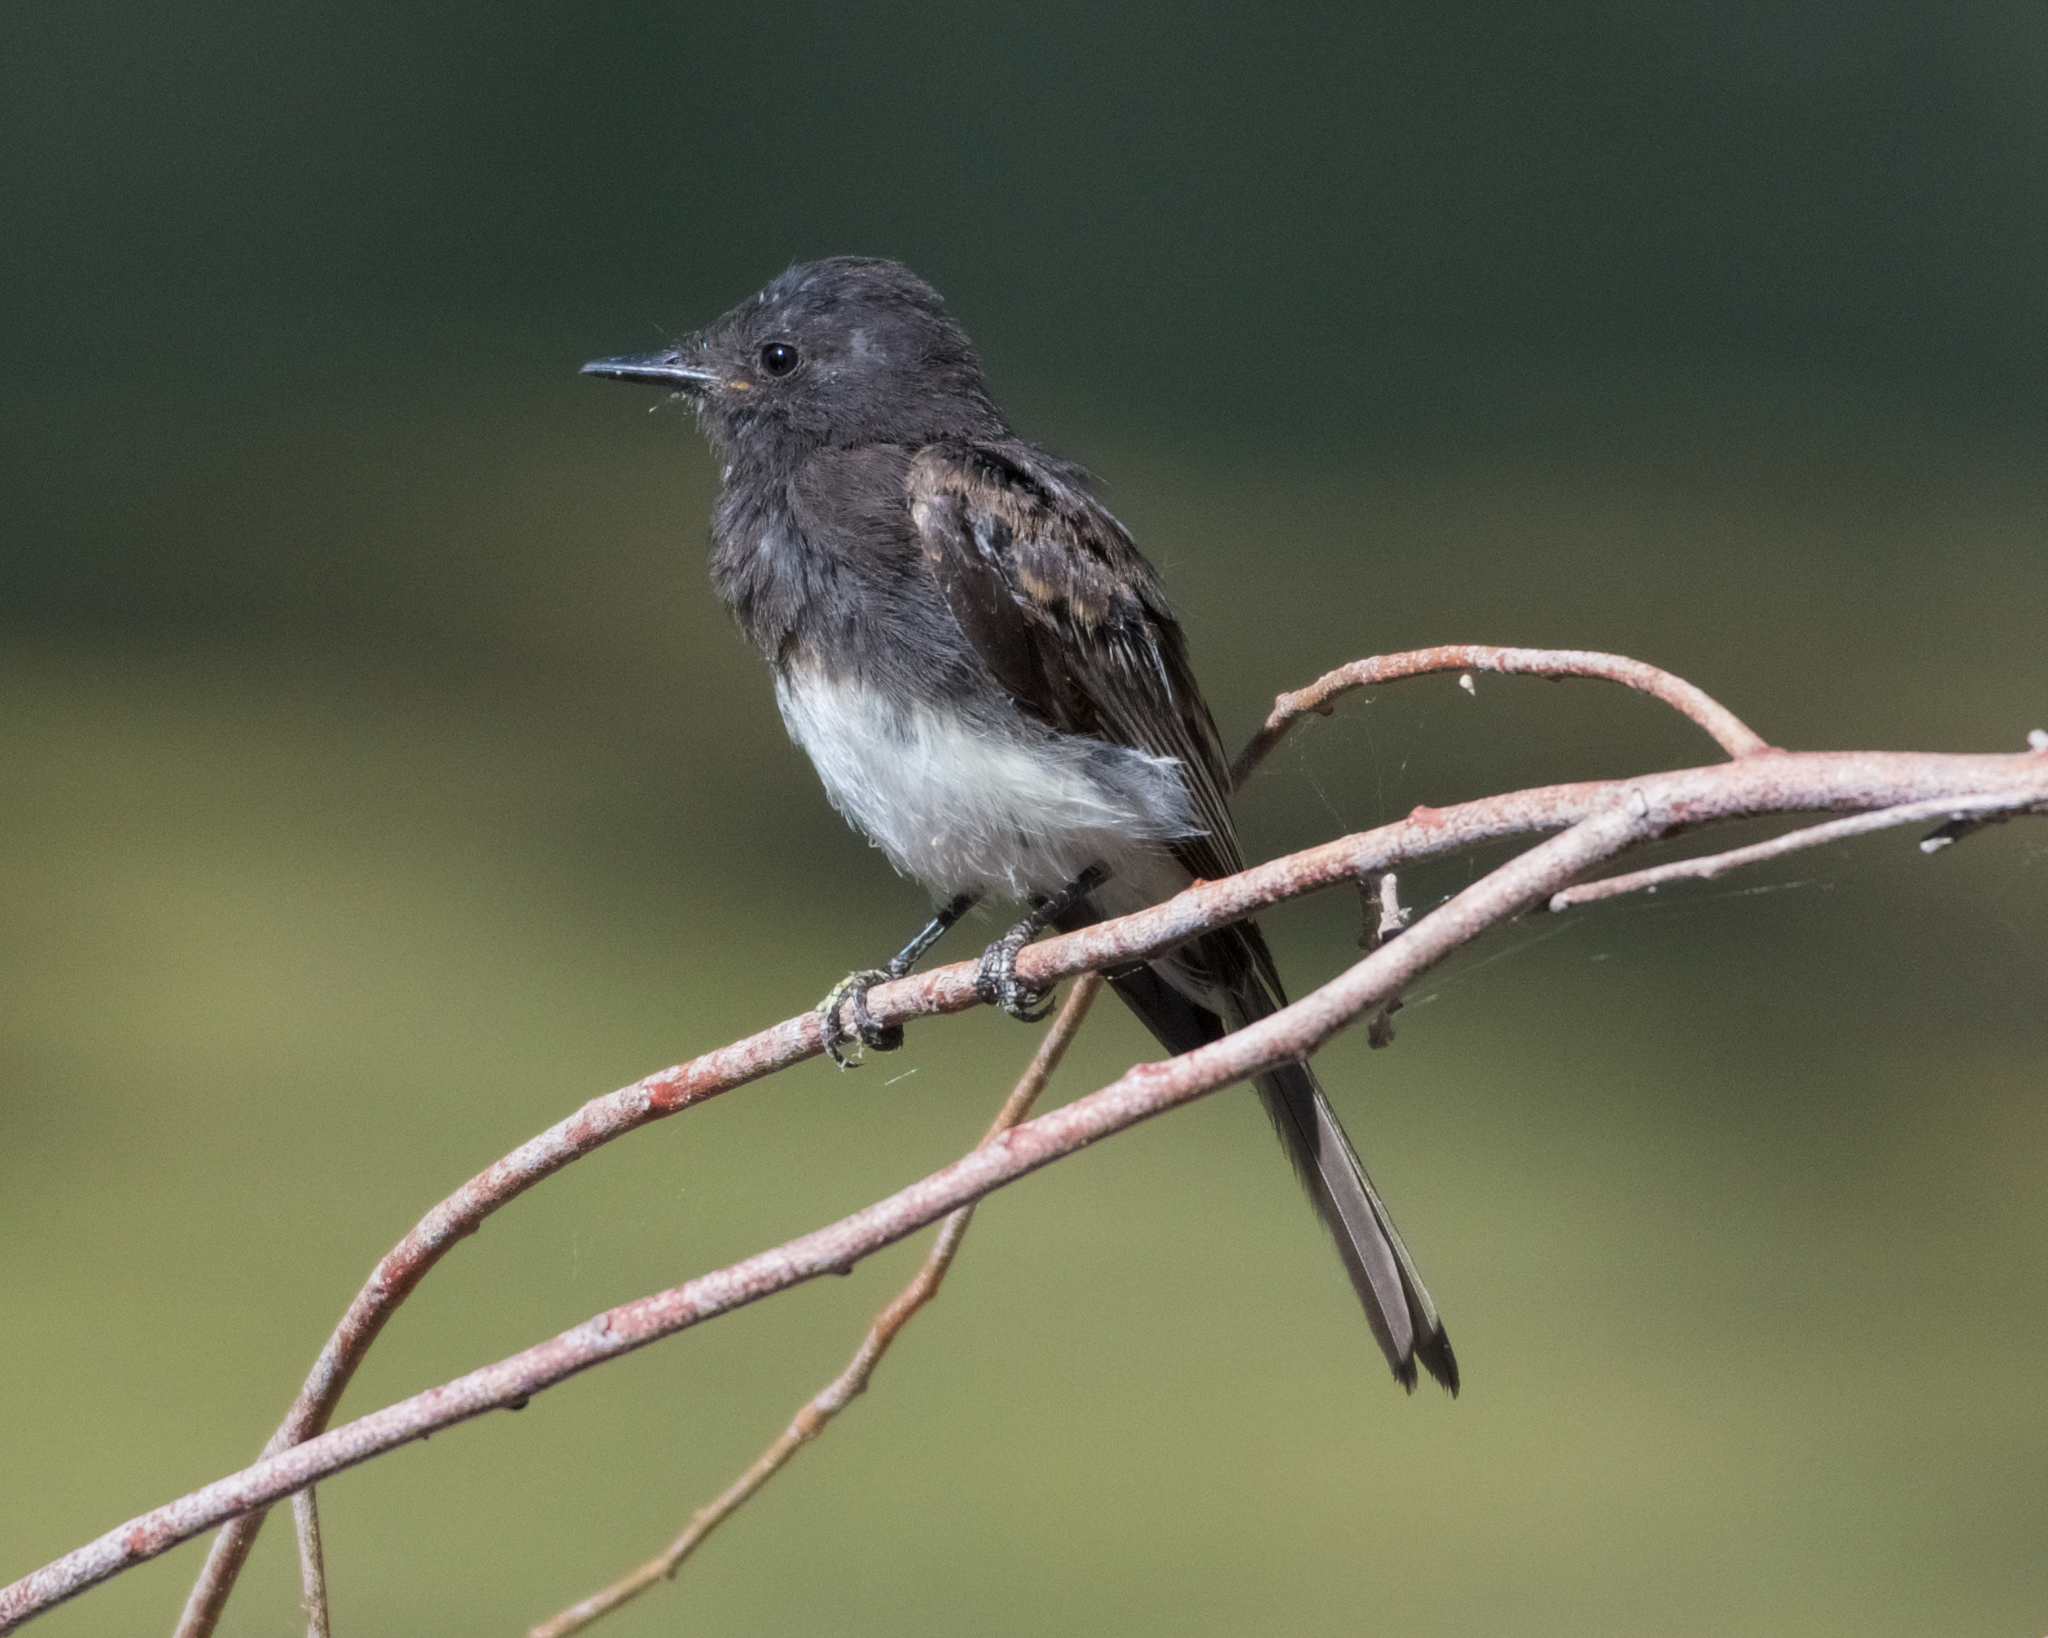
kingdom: Animalia
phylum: Chordata
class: Aves
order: Passeriformes
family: Tyrannidae
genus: Sayornis
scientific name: Sayornis nigricans
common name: Black phoebe
